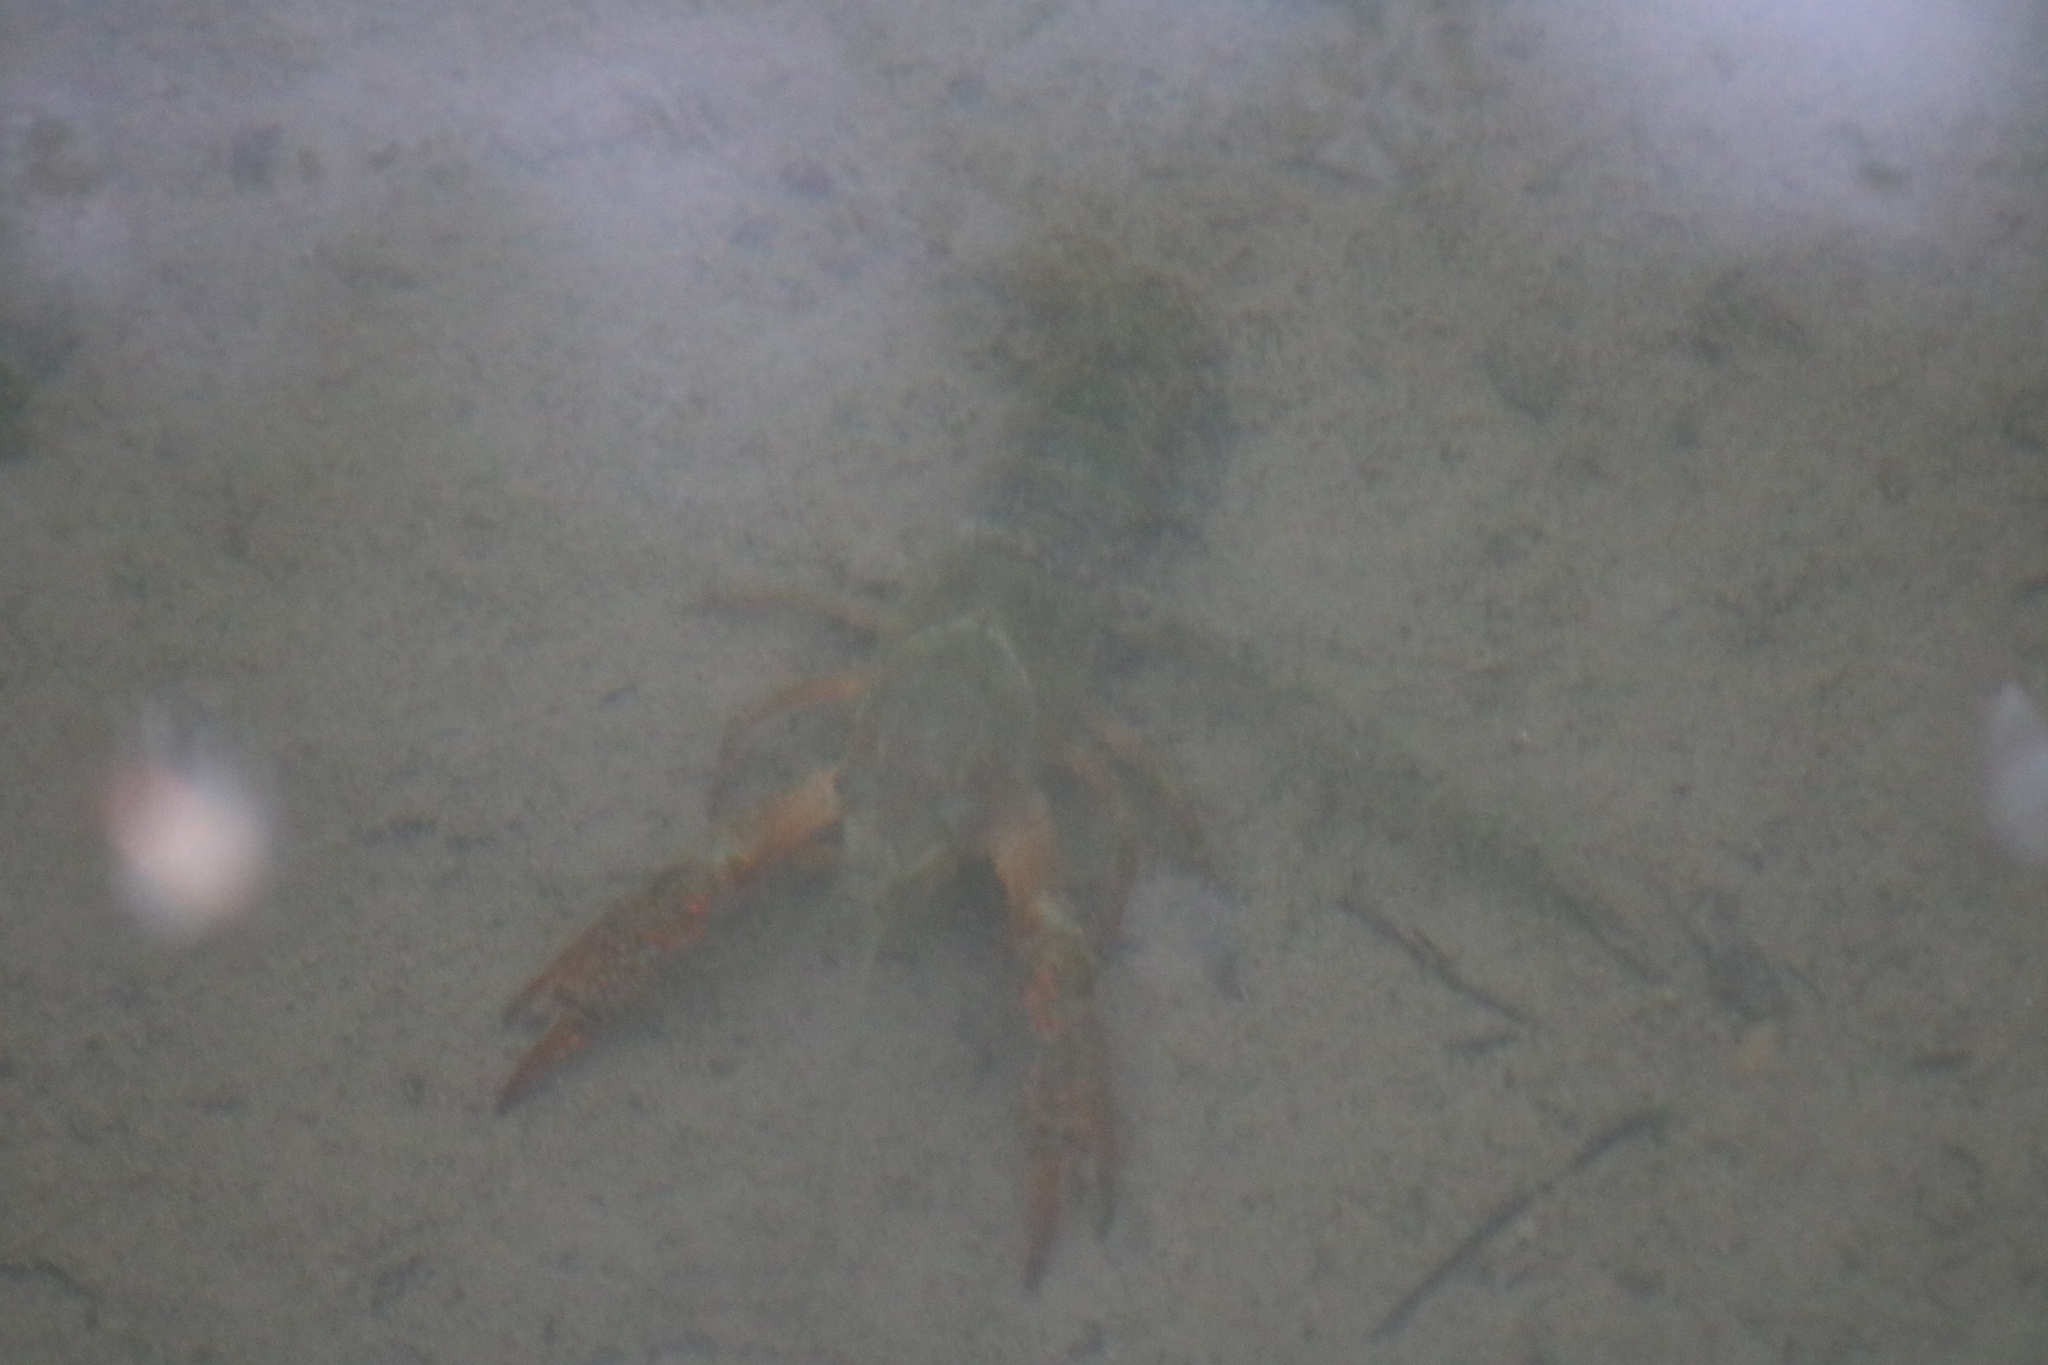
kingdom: Animalia
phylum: Arthropoda
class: Malacostraca
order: Decapoda
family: Cambaridae
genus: Procambarus
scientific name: Procambarus clarkii
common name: Red swamp crayfish
